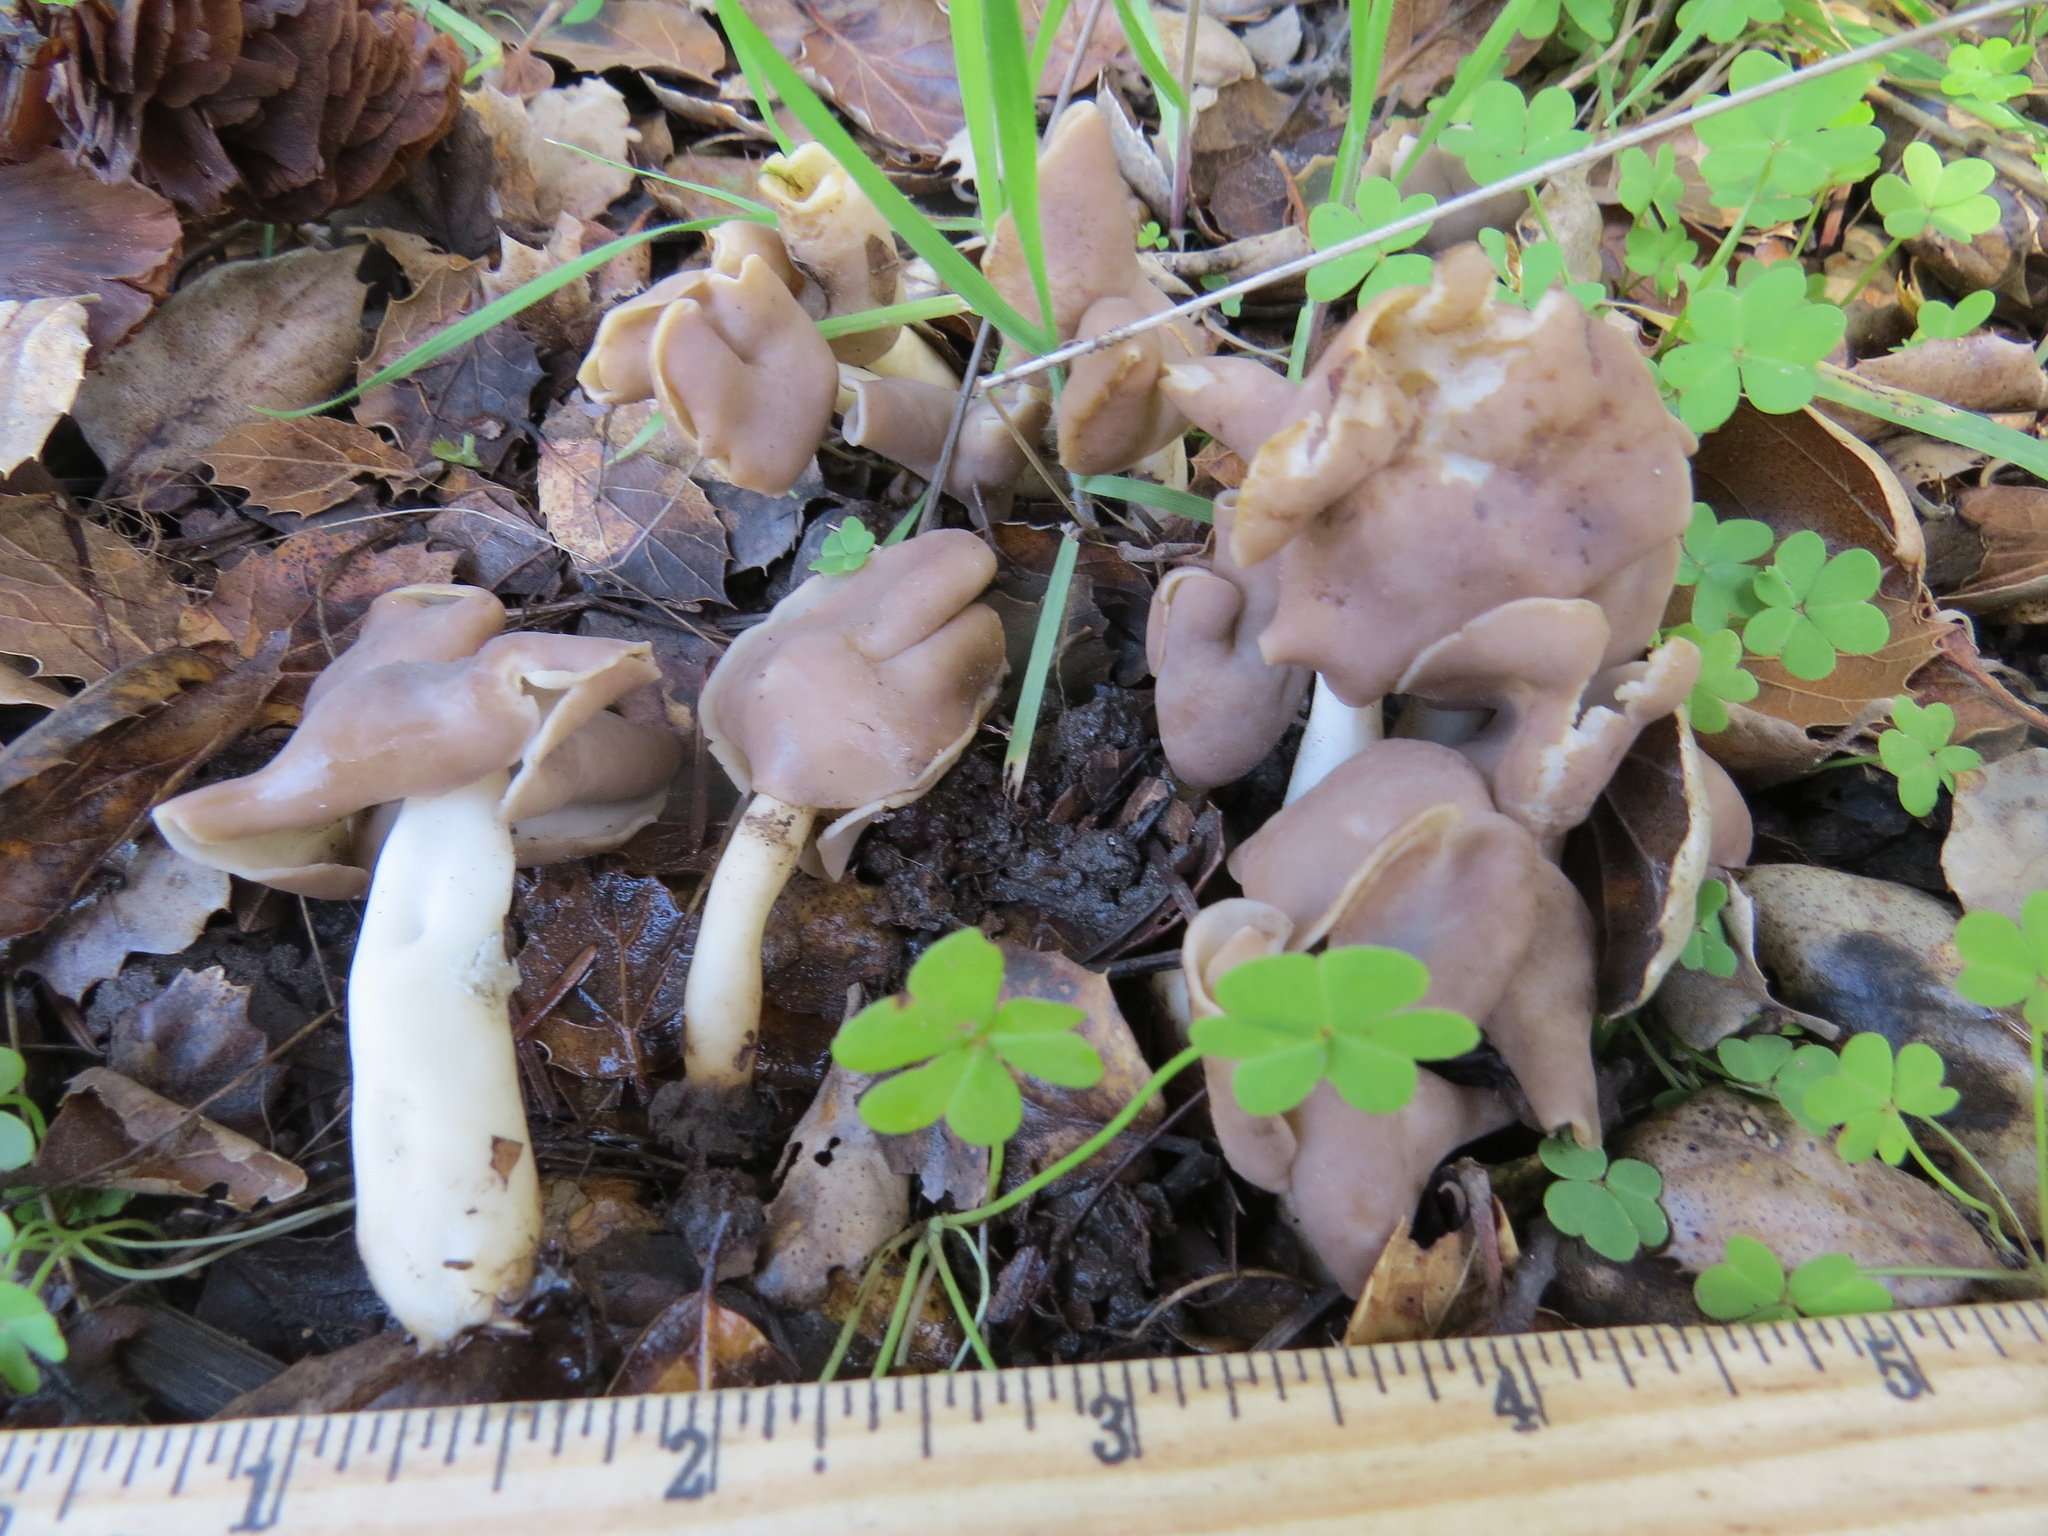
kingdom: Fungi
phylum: Ascomycota
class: Pezizomycetes
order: Pezizales
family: Helvellaceae
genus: Helvella
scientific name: Helvella compressa
